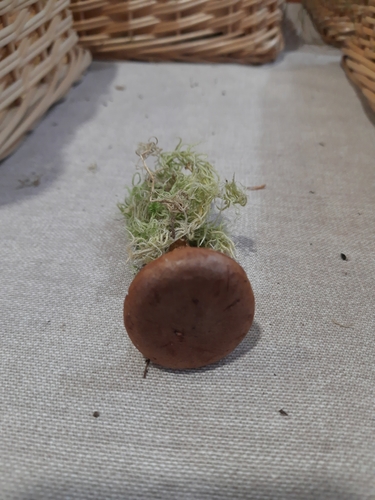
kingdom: Fungi
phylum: Basidiomycota
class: Agaricomycetes
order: Russulales
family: Russulaceae
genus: Lactarius
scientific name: Lactarius rufus
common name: Rufous milk-cap
